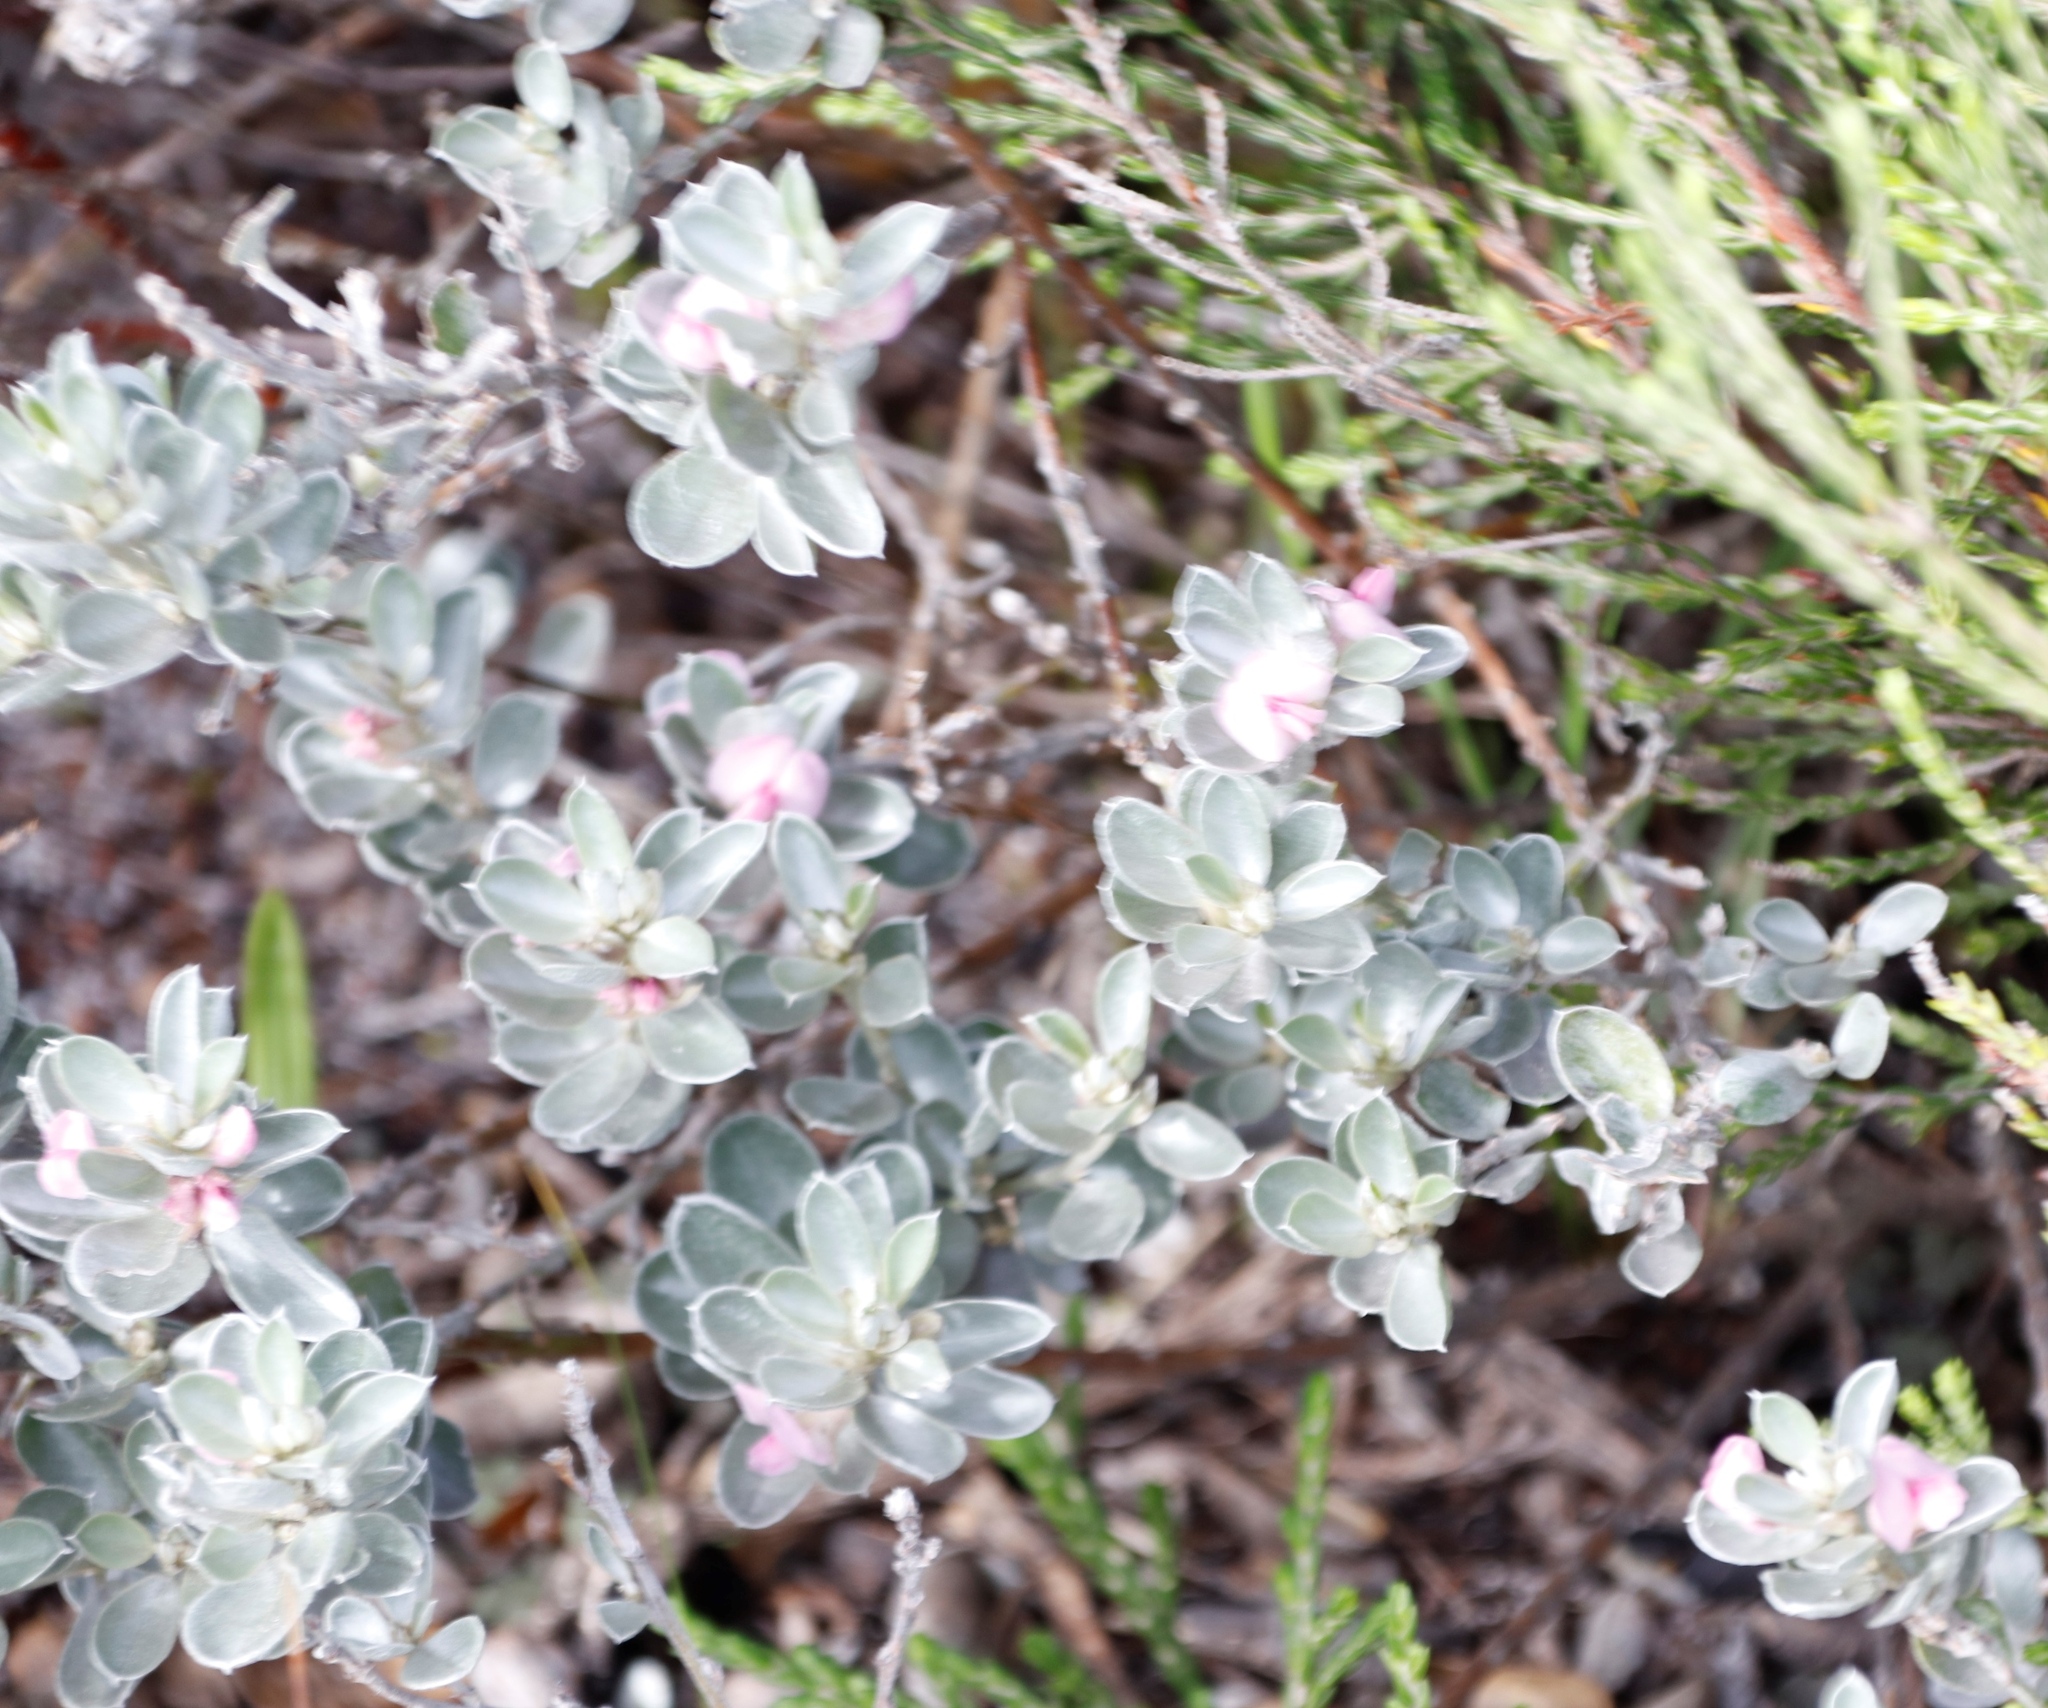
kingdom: Plantae
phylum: Tracheophyta
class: Magnoliopsida
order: Fabales
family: Fabaceae
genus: Podalyria
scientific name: Podalyria sericea
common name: Silver podalyria
